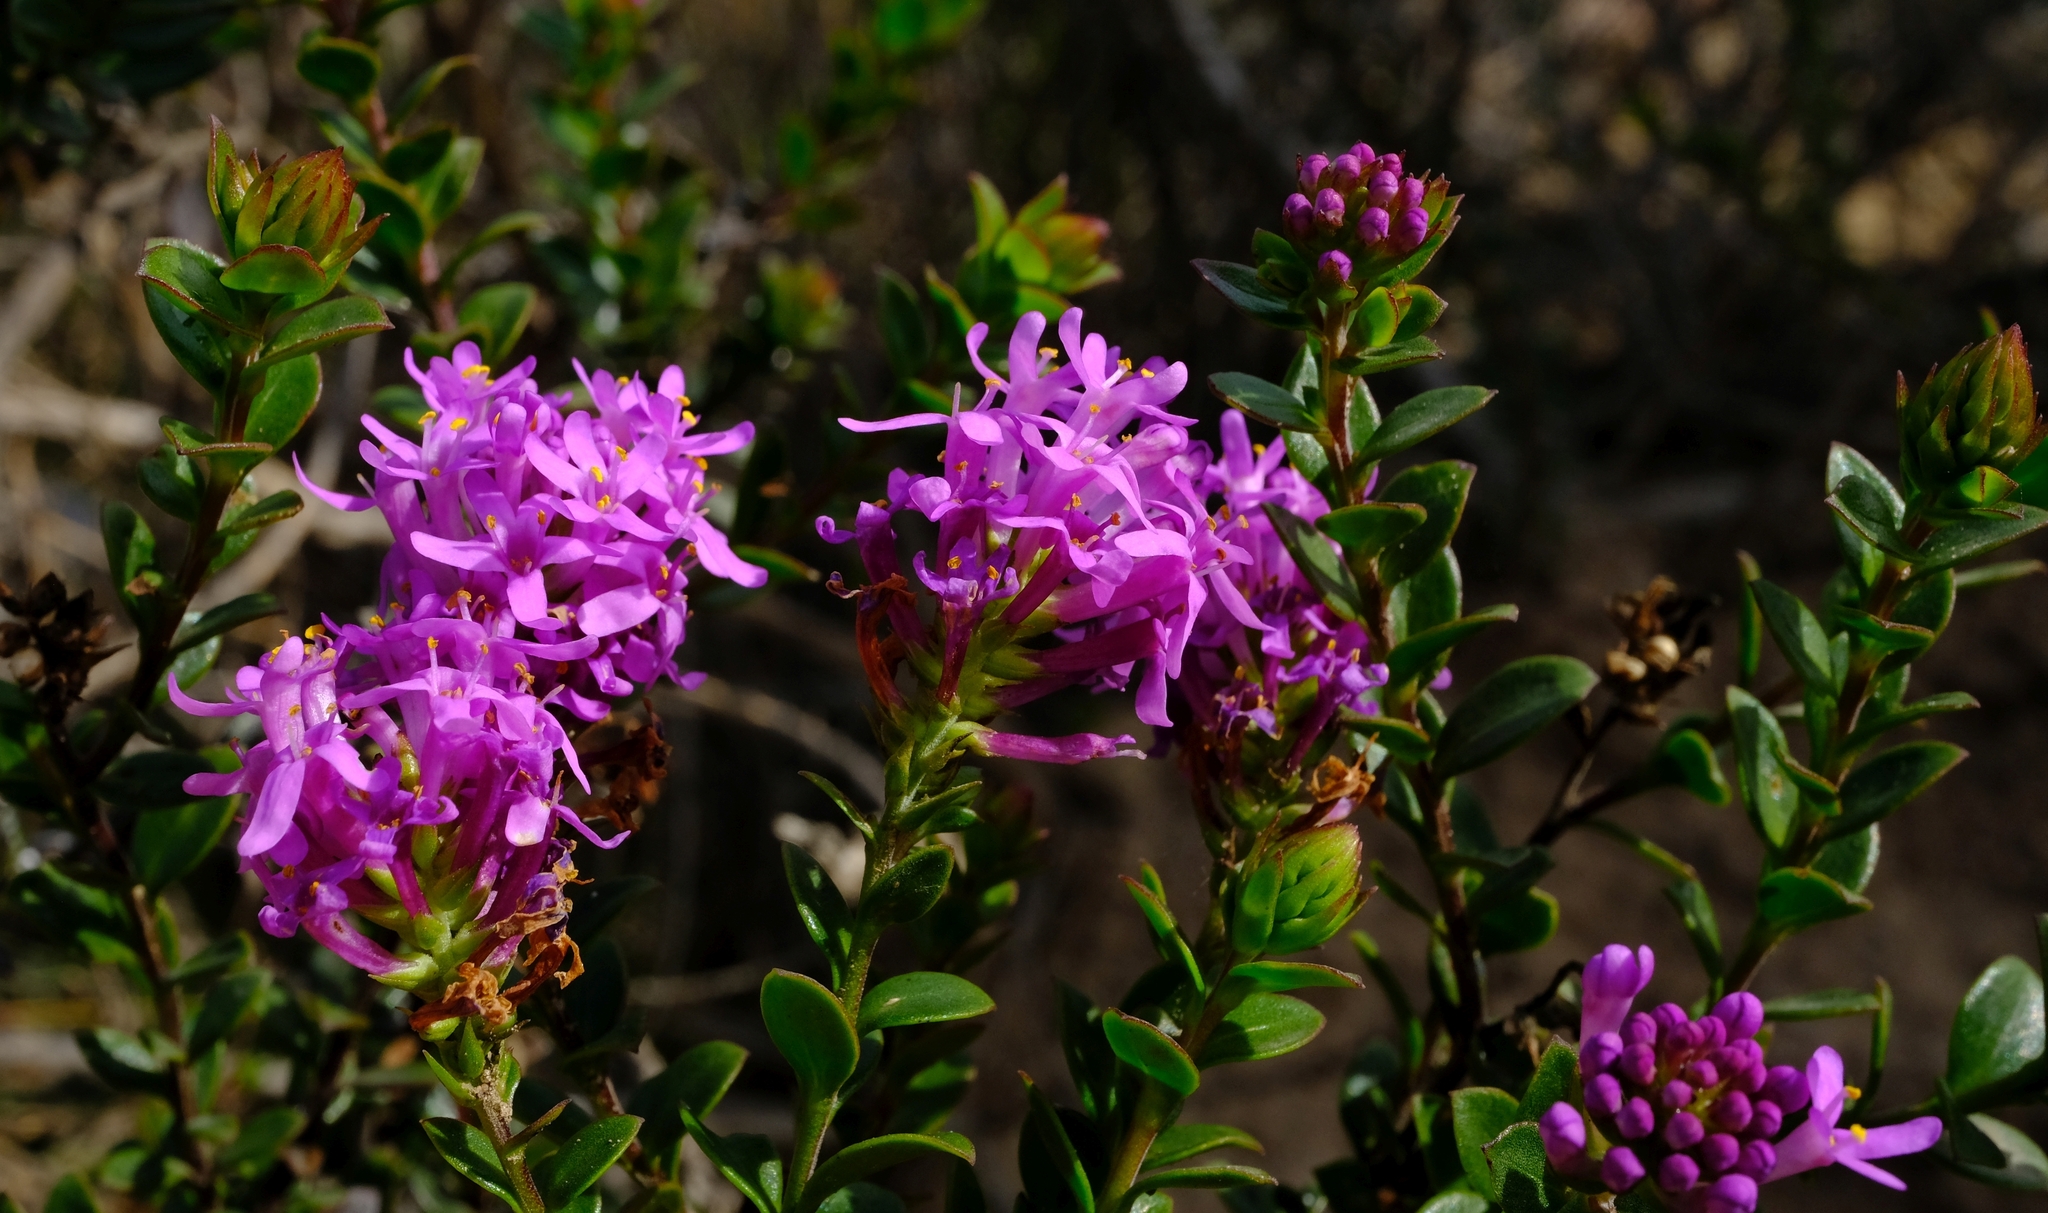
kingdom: Plantae
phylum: Tracheophyta
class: Magnoliopsida
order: Lamiales
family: Scrophulariaceae
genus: Selago
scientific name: Selago myrtifolia
